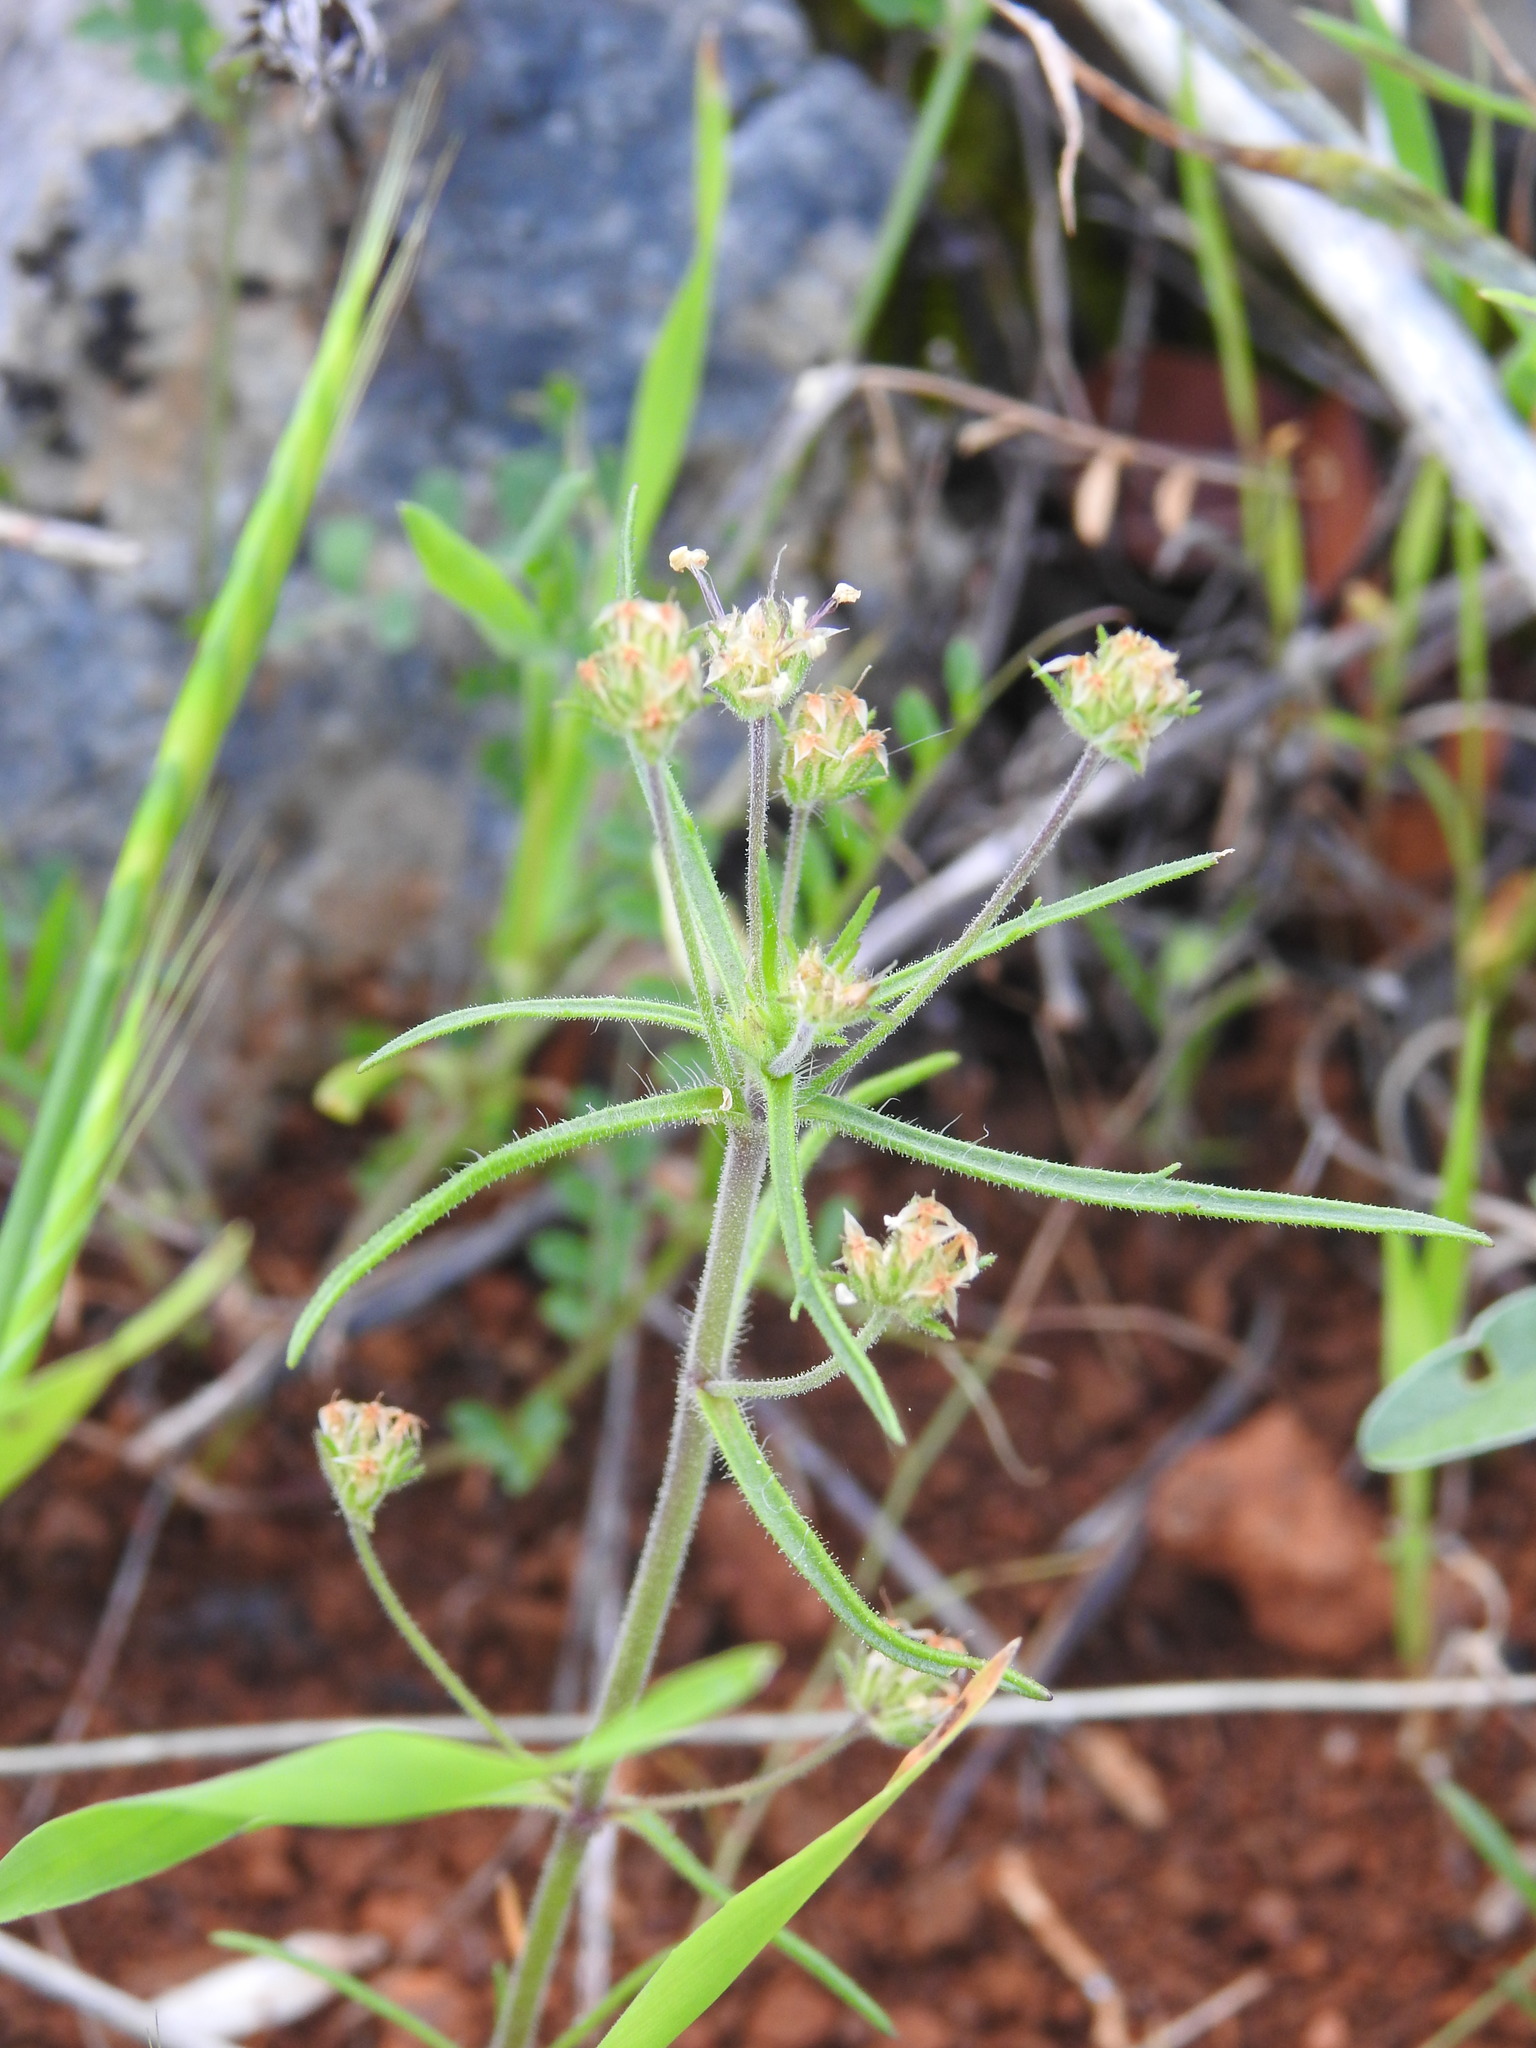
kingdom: Plantae
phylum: Tracheophyta
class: Magnoliopsida
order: Lamiales
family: Plantaginaceae
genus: Plantago
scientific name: Plantago afra
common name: Glandular plantain
